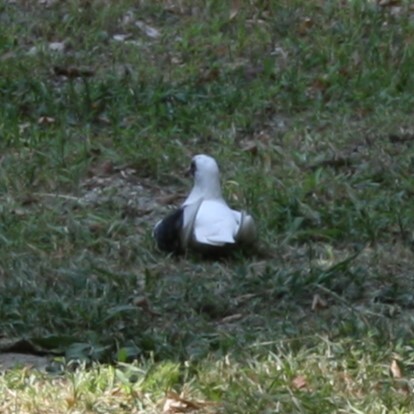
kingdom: Animalia
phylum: Chordata
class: Aves
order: Columbiformes
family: Columbidae
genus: Columba
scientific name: Columba livia
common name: Rock pigeon
